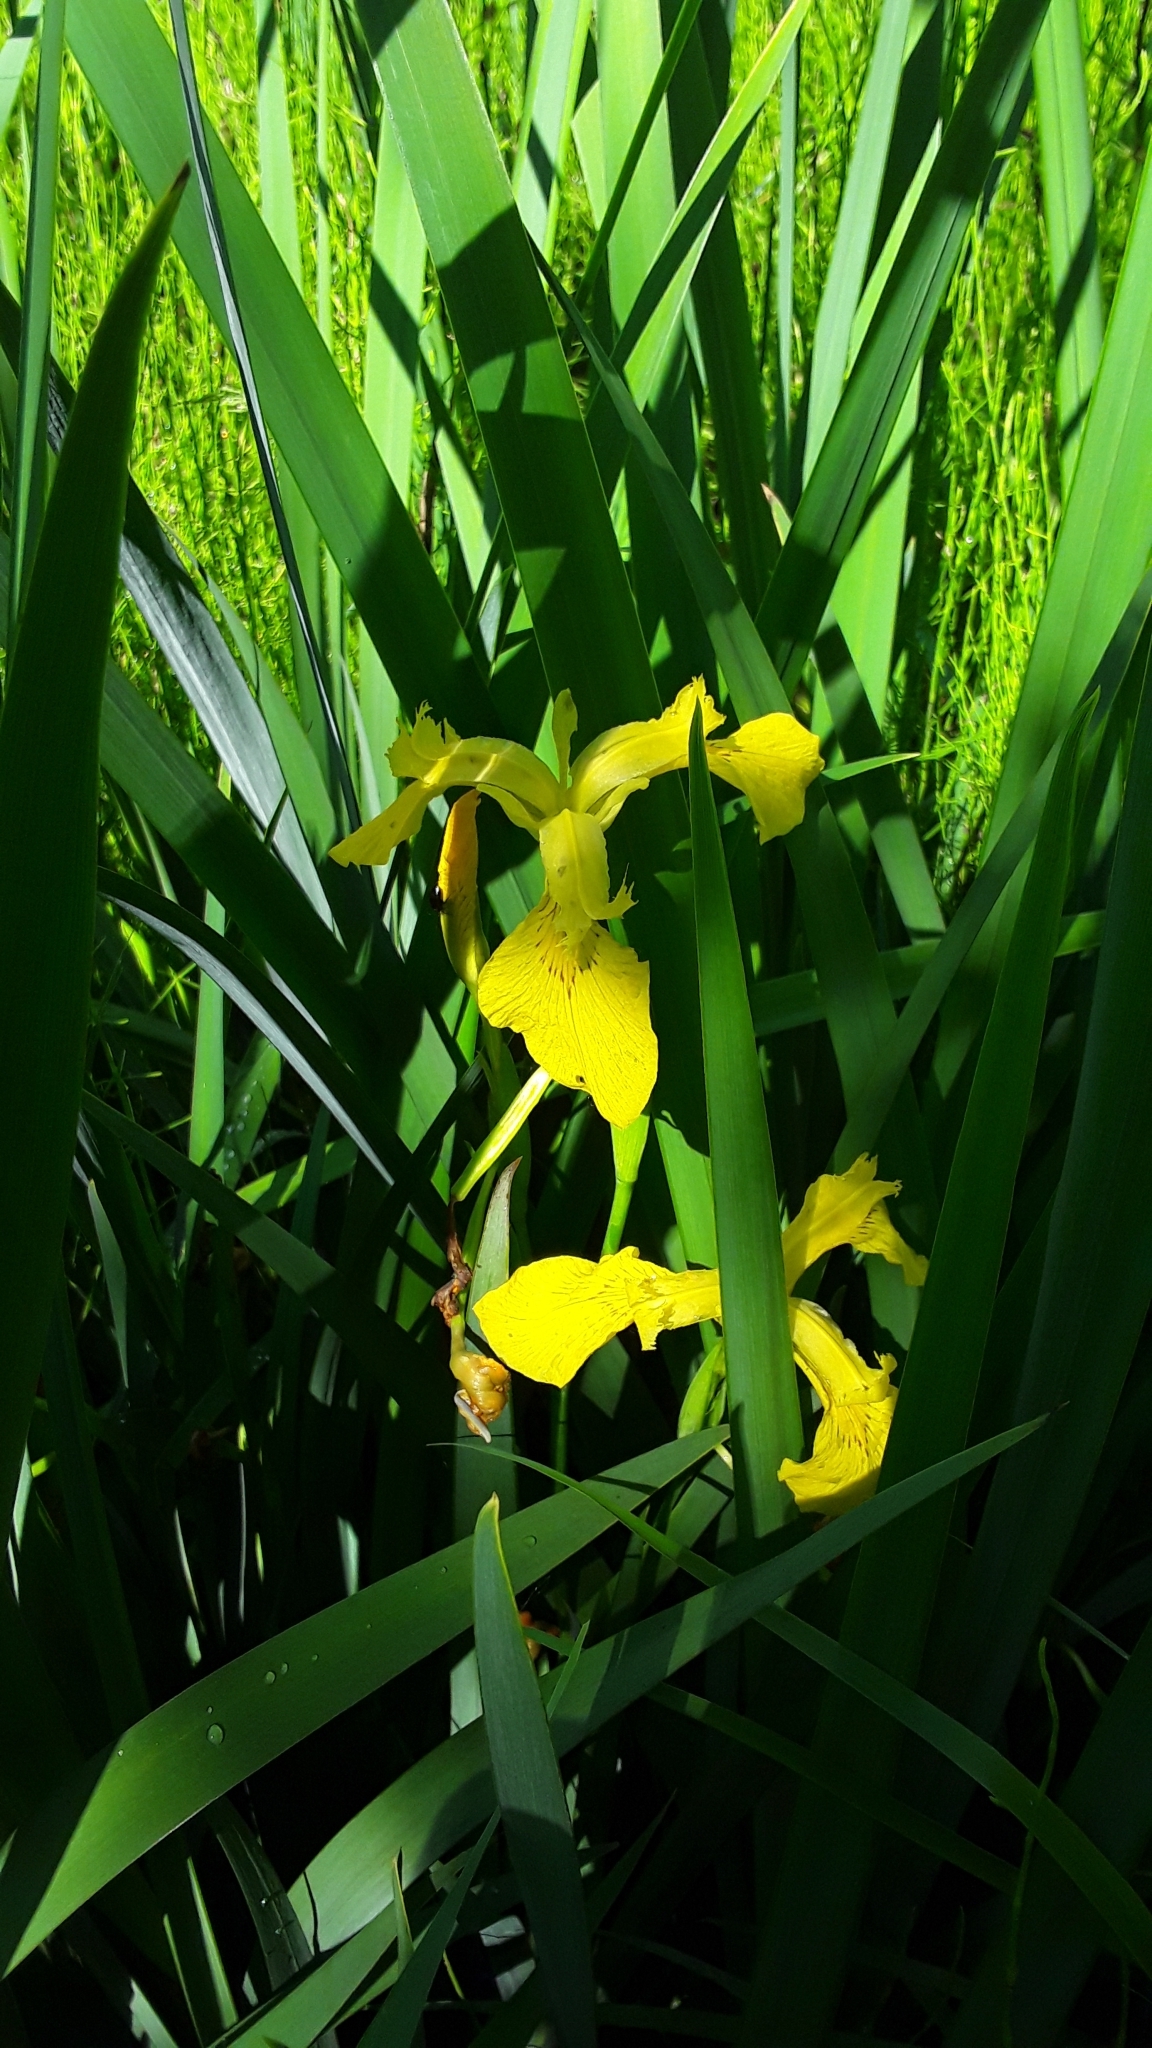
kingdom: Plantae
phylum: Tracheophyta
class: Liliopsida
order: Asparagales
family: Iridaceae
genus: Iris
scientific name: Iris pseudacorus
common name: Yellow flag
